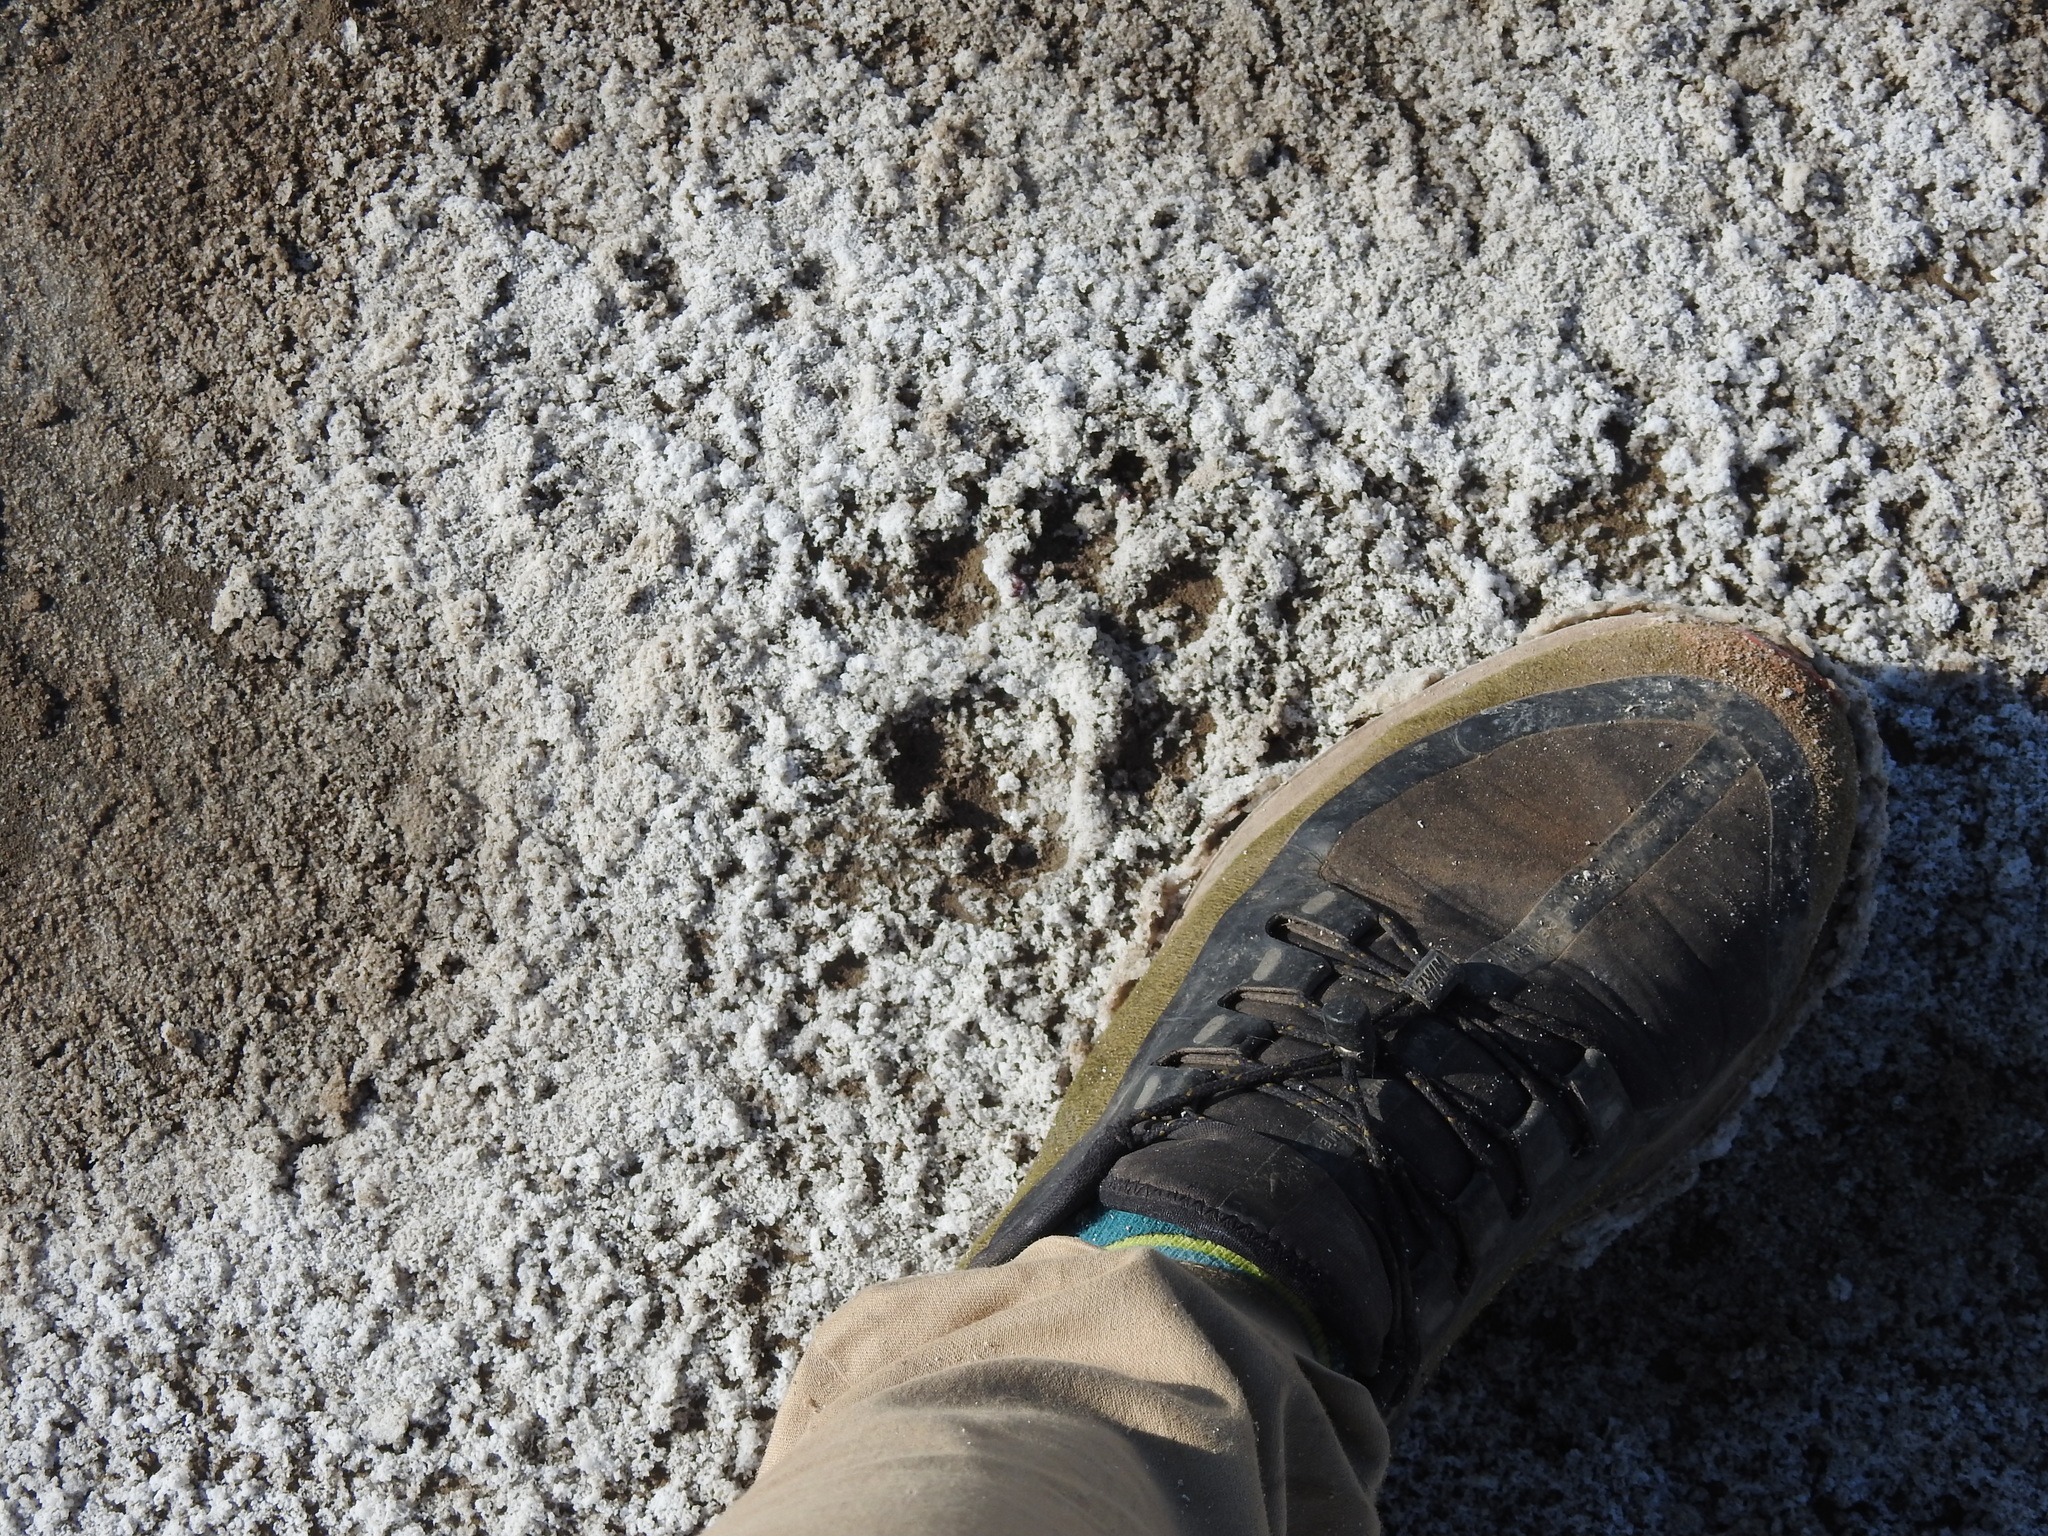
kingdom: Animalia
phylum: Chordata
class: Mammalia
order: Carnivora
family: Felidae
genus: Puma
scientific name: Puma concolor
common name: Puma
